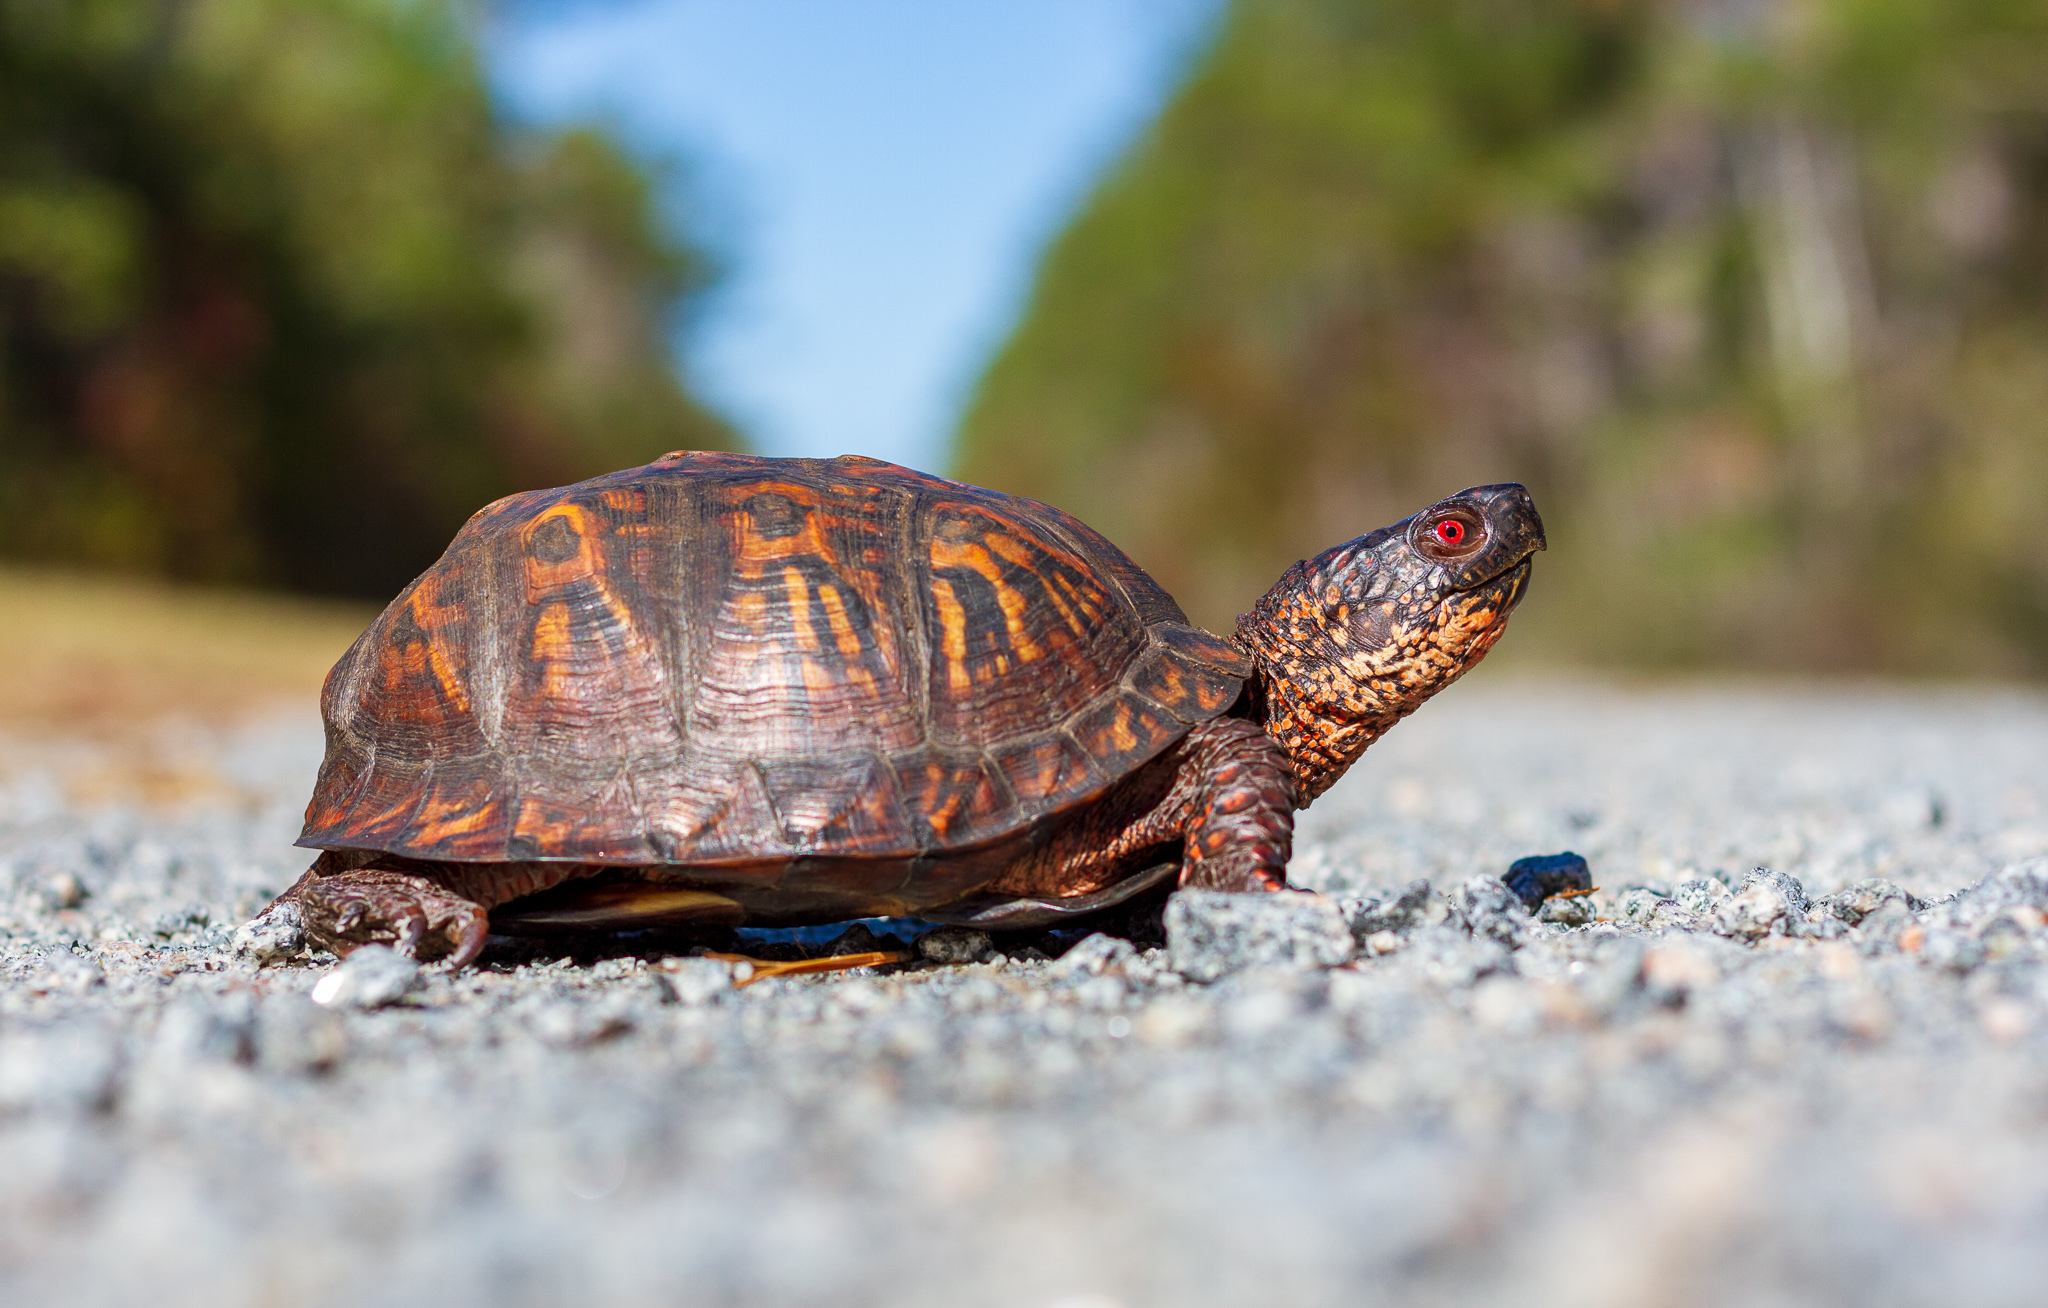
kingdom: Animalia
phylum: Chordata
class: Testudines
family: Emydidae
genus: Terrapene
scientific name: Terrapene carolina
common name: Common box turtle
